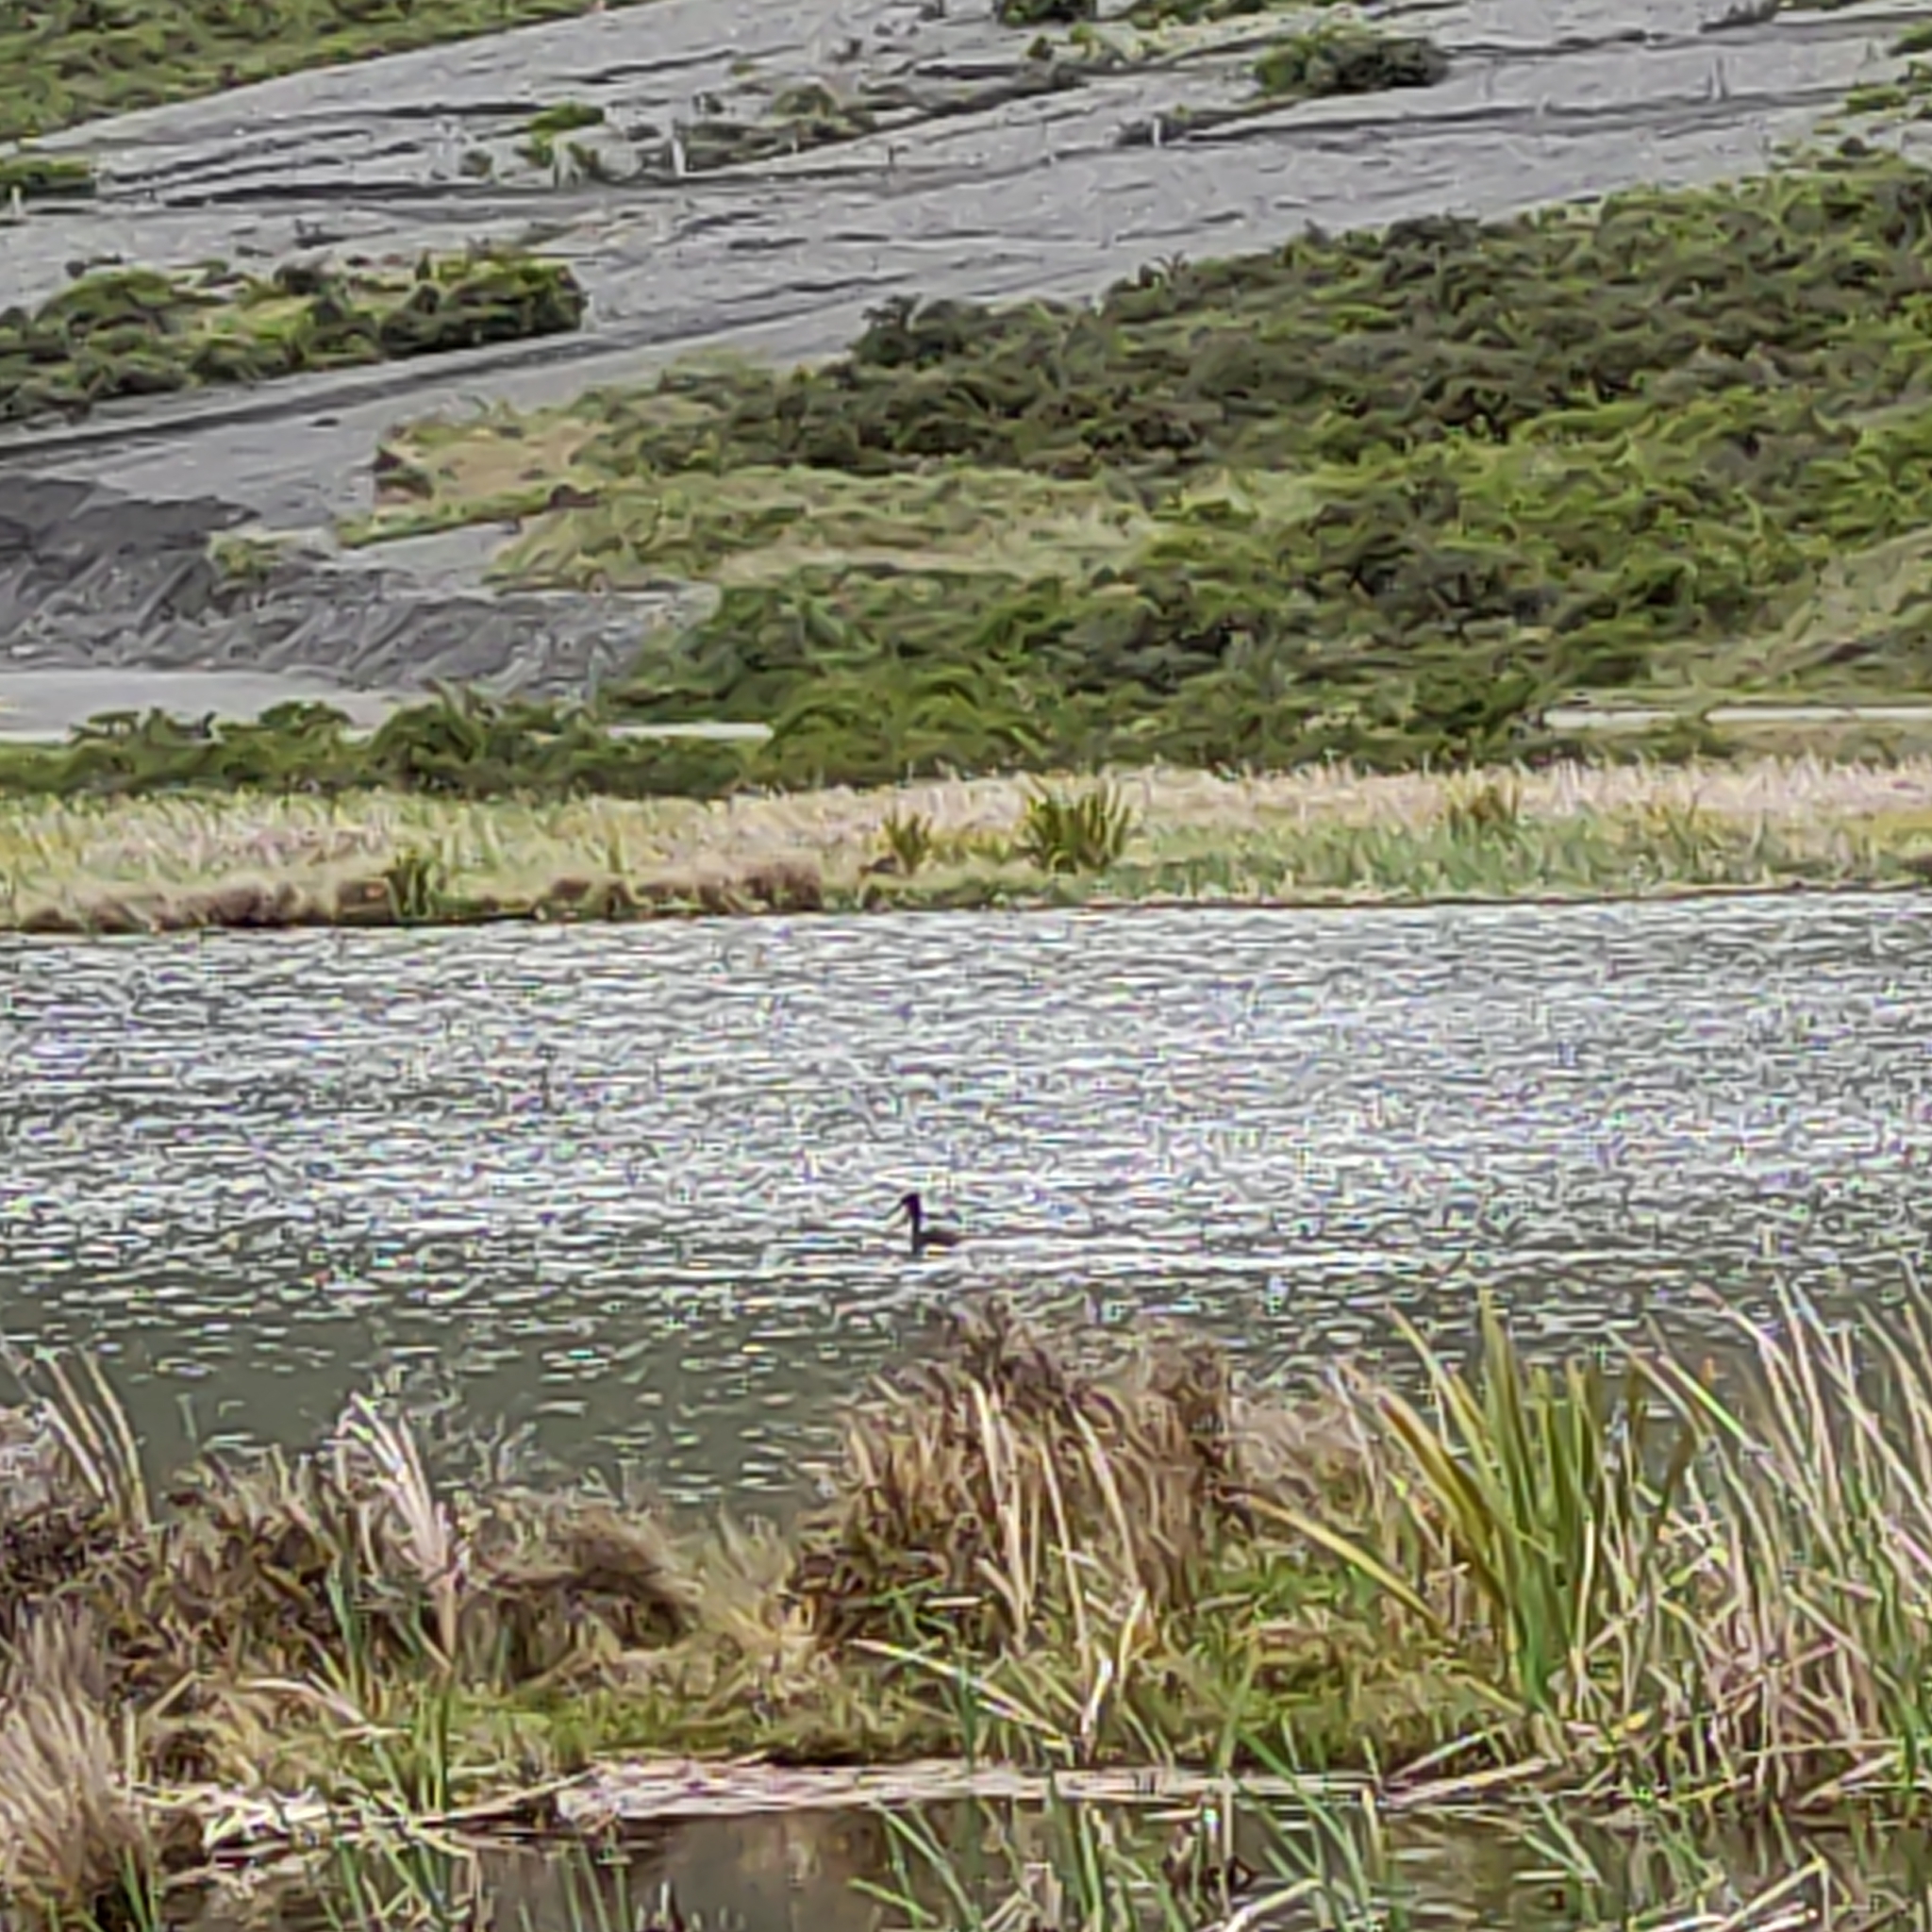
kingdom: Animalia
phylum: Chordata
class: Aves
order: Podicipediformes
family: Podicipedidae
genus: Podiceps
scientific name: Podiceps cristatus
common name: Great crested grebe
